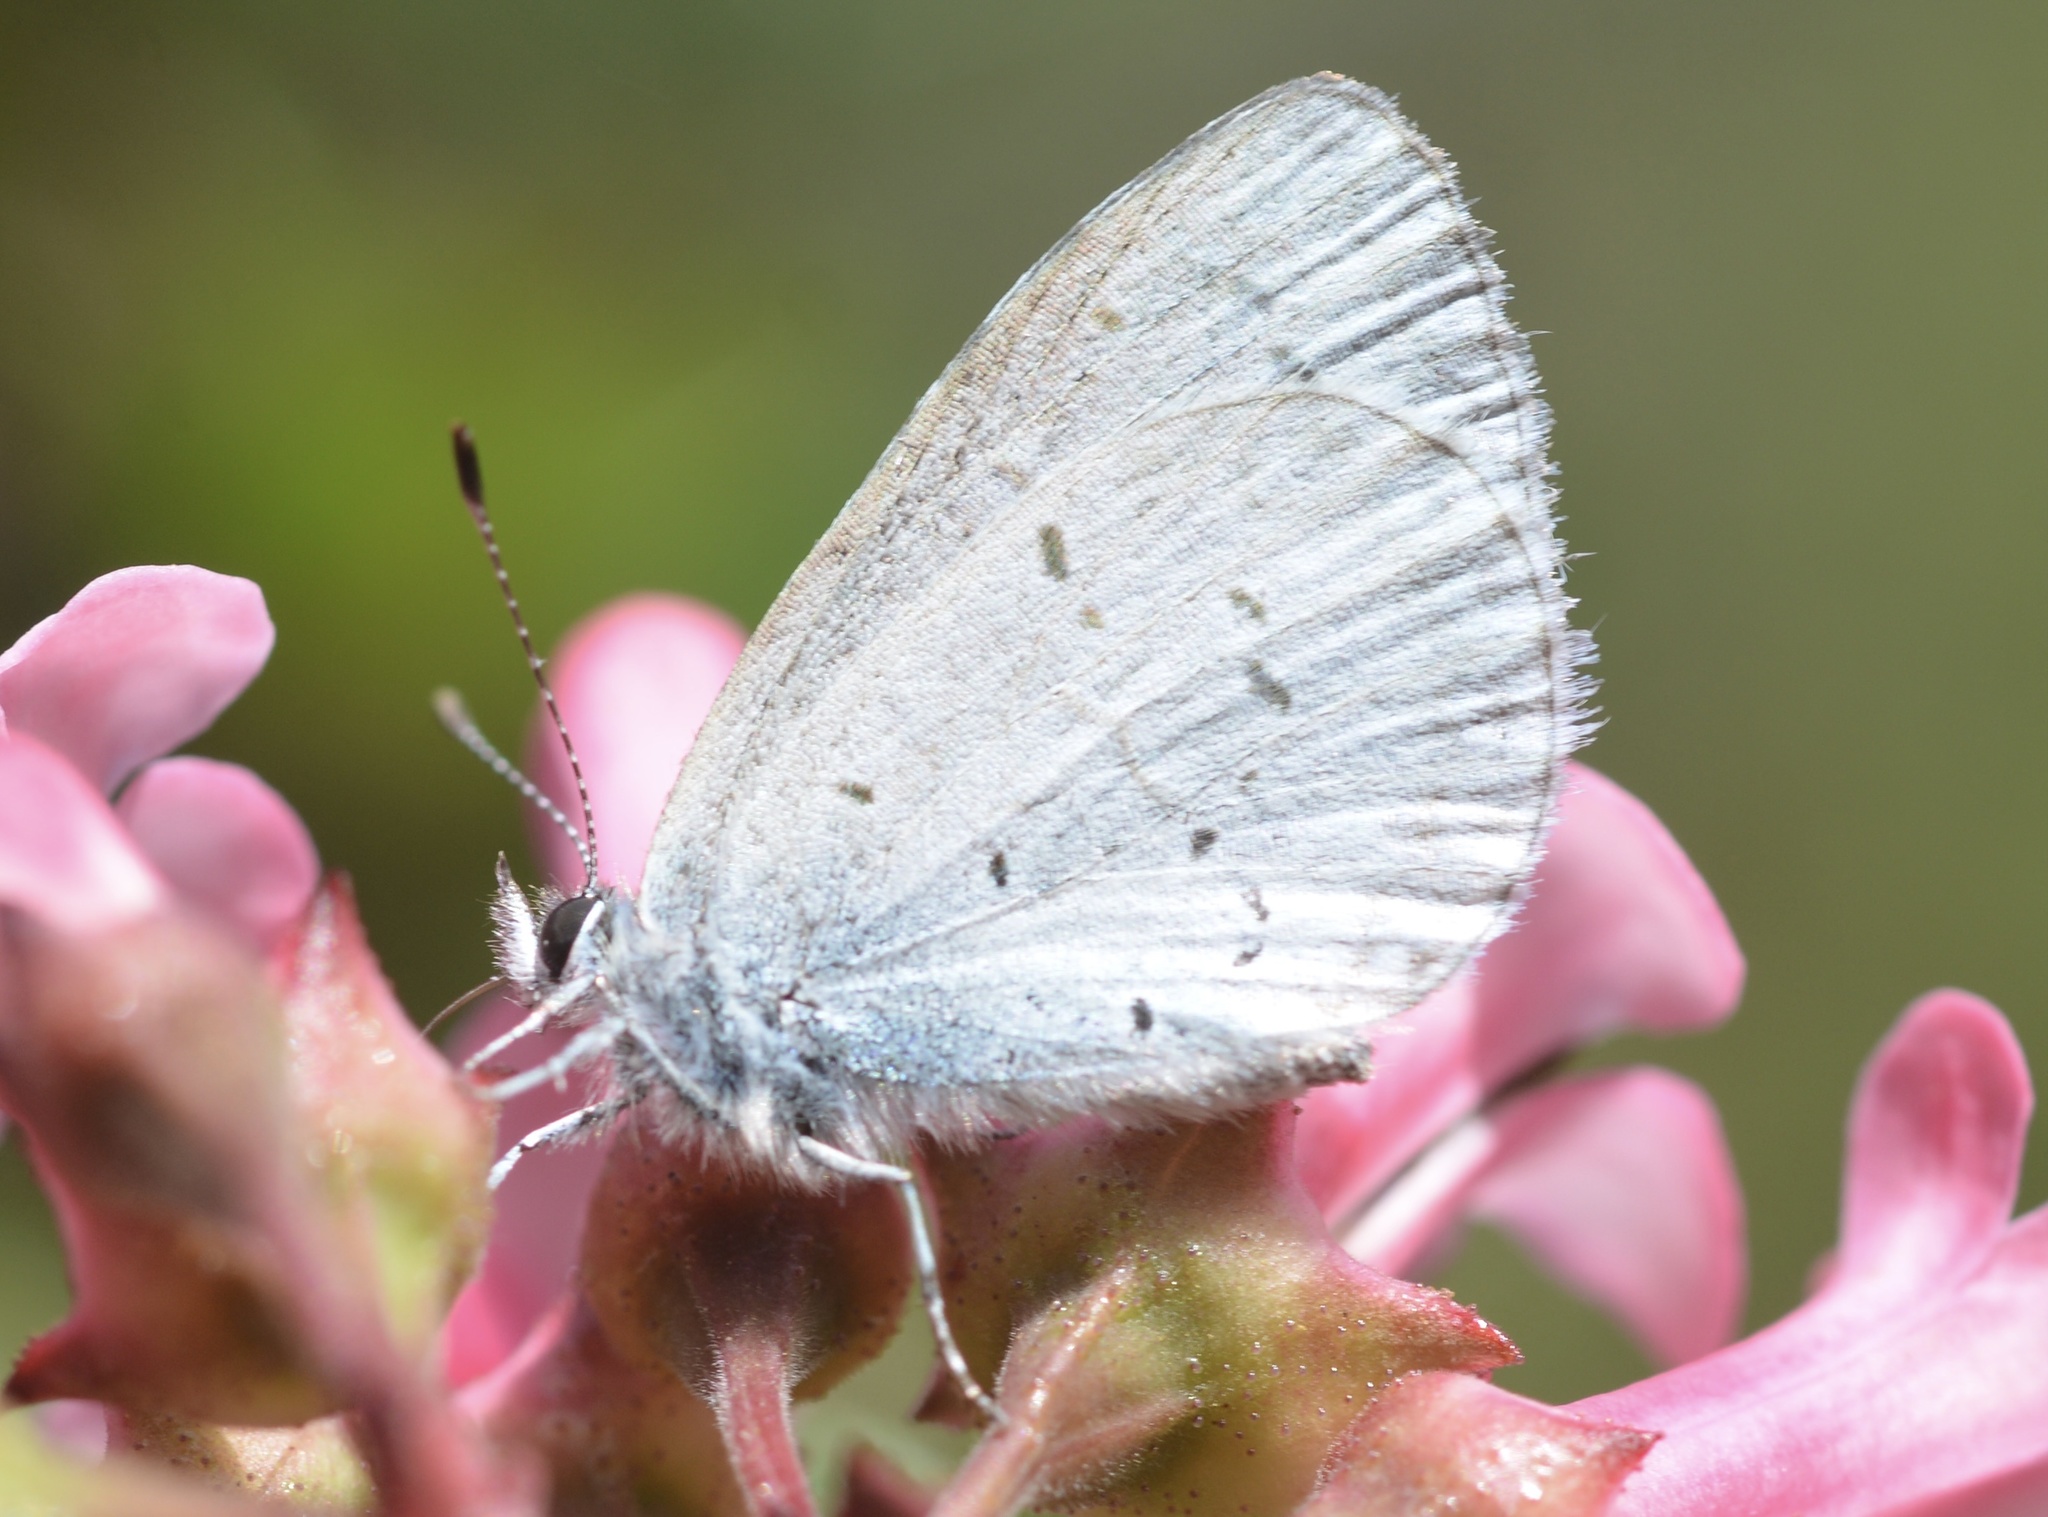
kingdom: Animalia
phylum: Arthropoda
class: Insecta
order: Lepidoptera
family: Lycaenidae
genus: Celastrina
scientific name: Celastrina ladon
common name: Spring azure
